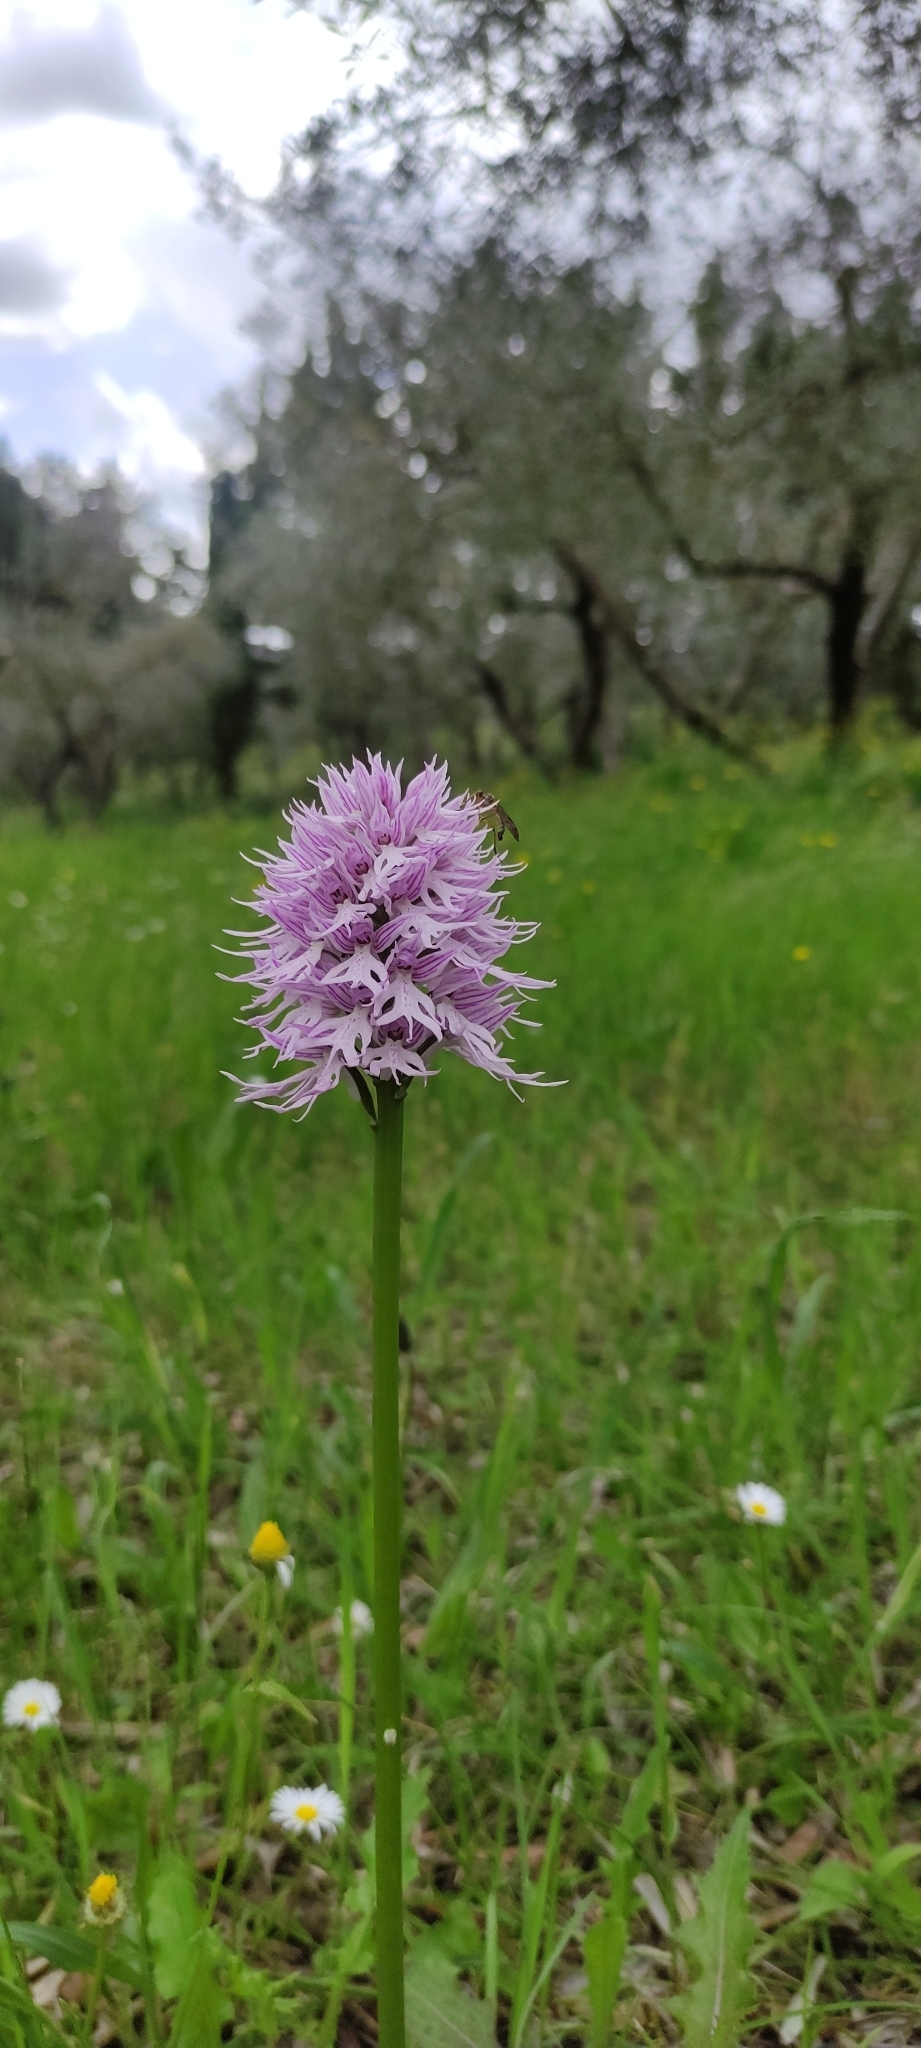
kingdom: Plantae
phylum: Tracheophyta
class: Liliopsida
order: Asparagales
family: Orchidaceae
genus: Orchis
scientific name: Orchis italica
